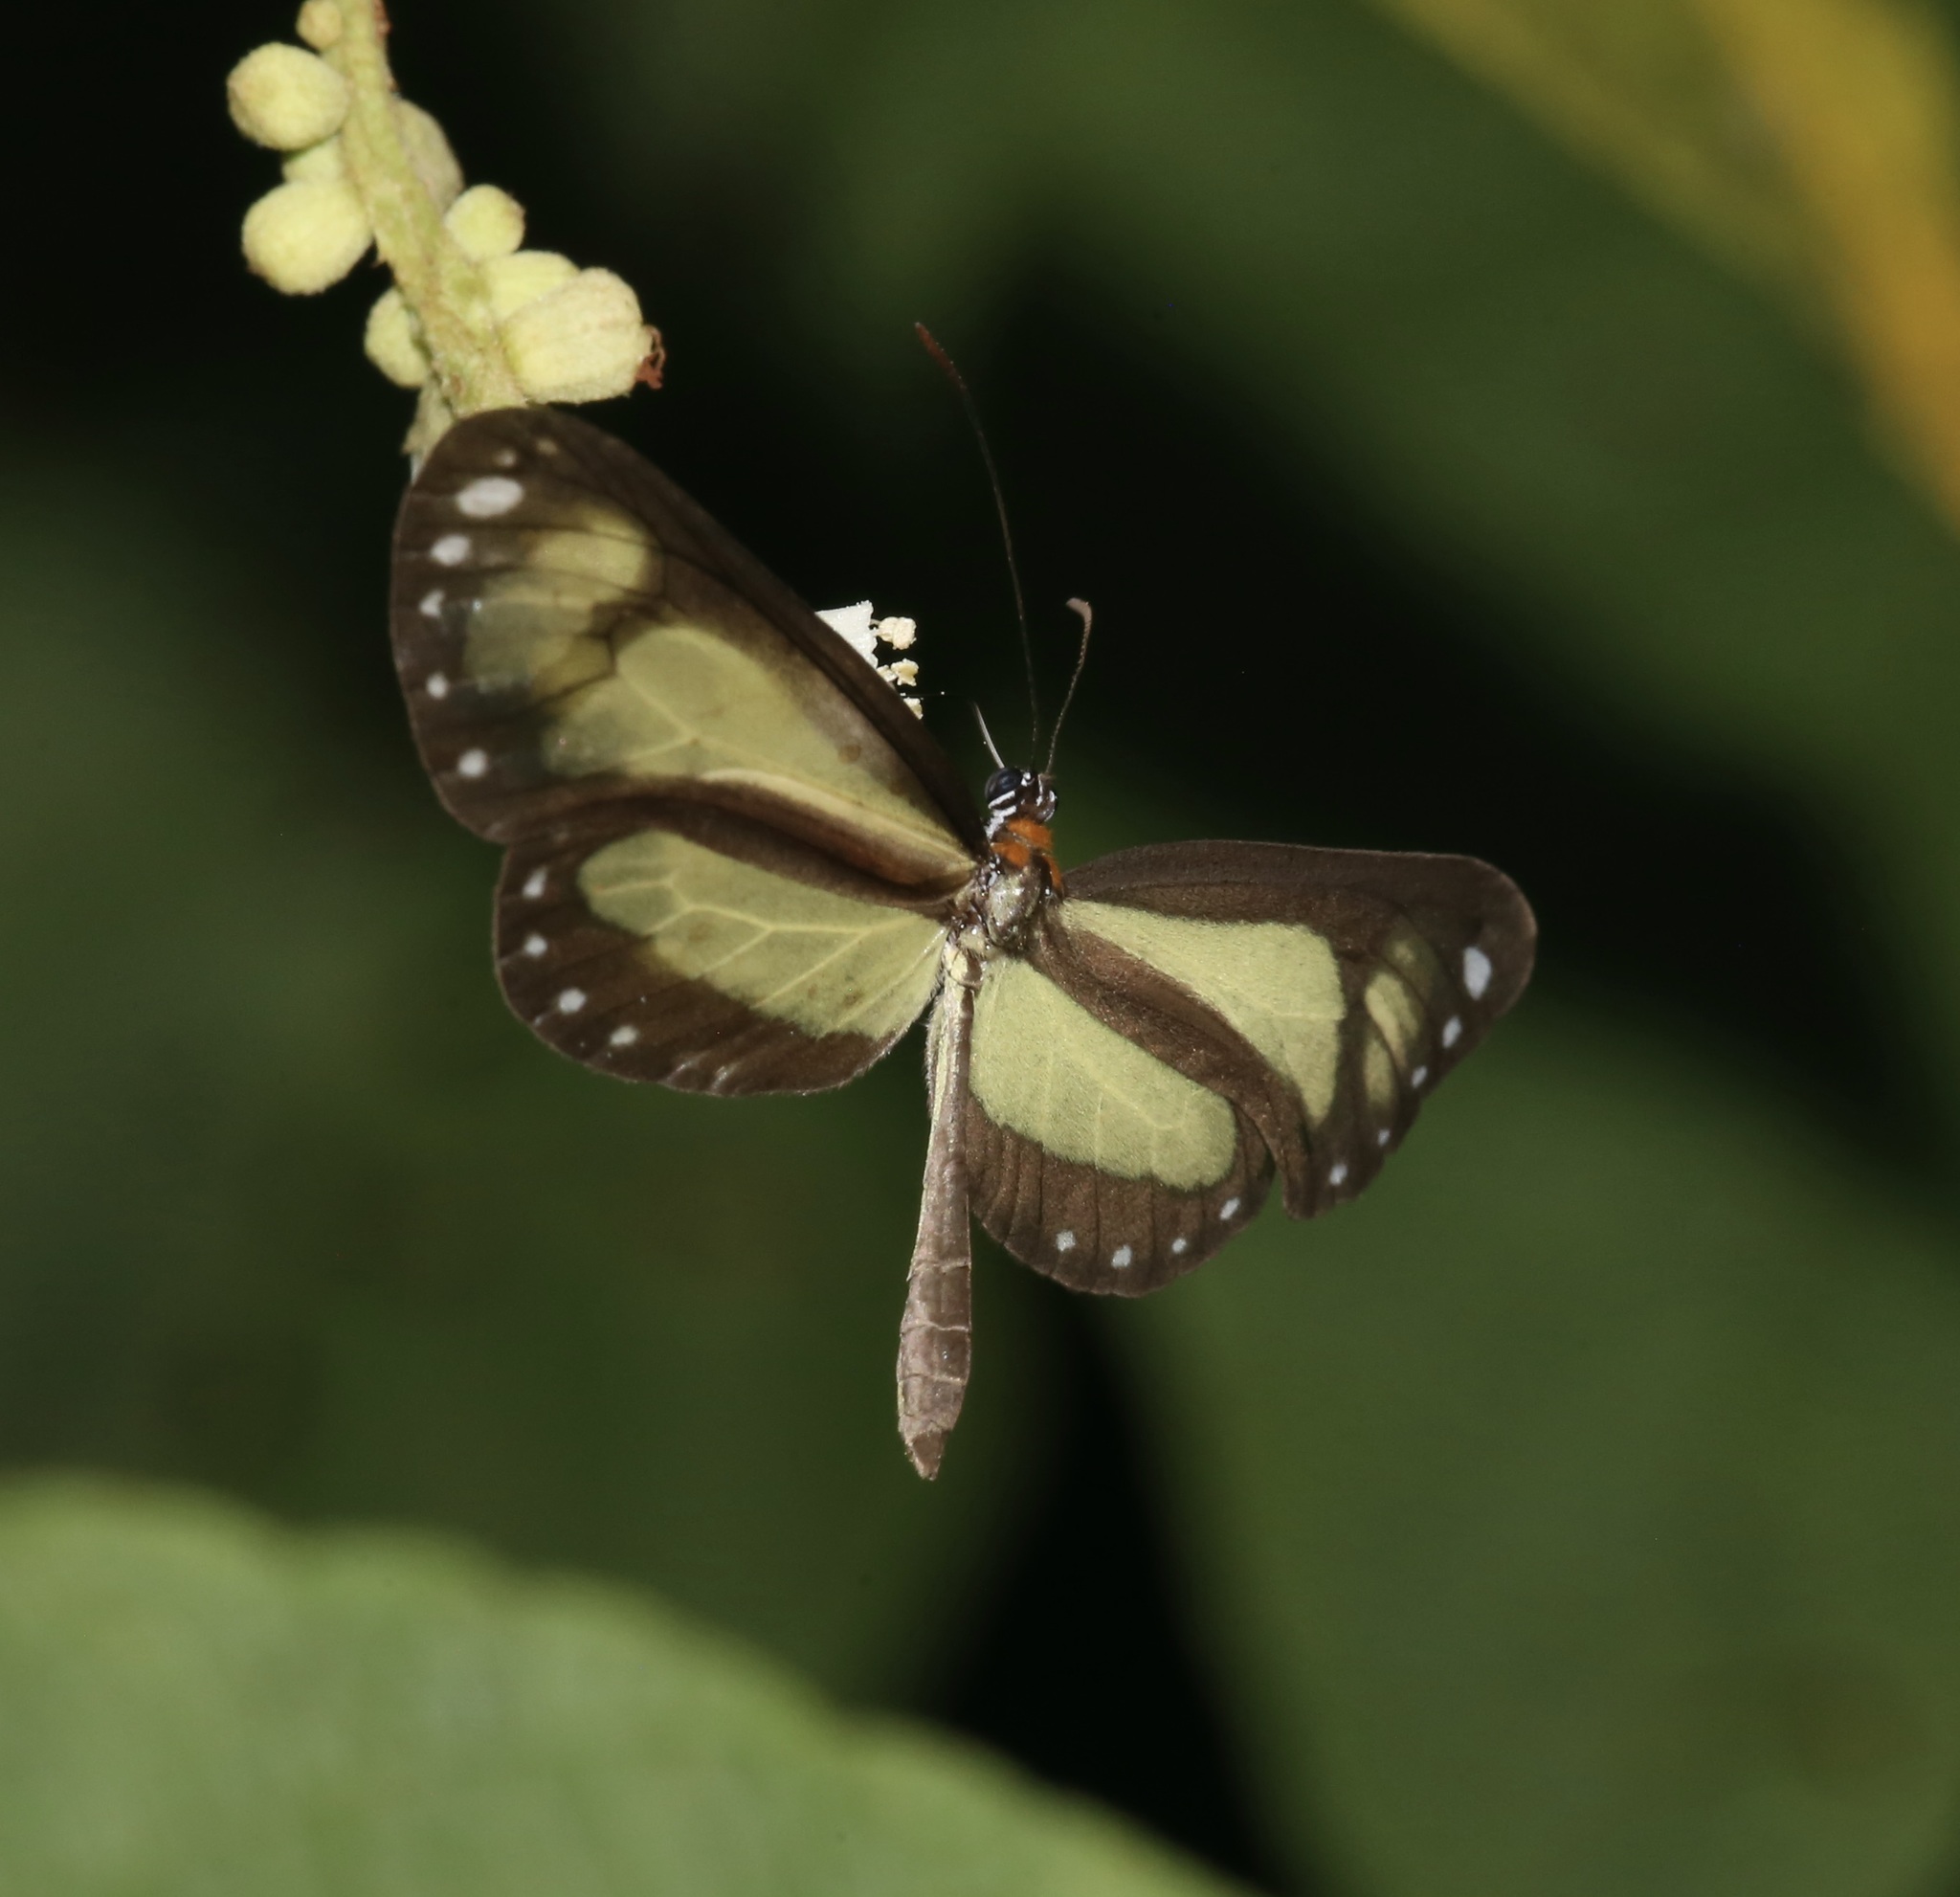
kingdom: Animalia
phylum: Arthropoda
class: Insecta
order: Lepidoptera
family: Nymphalidae
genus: Scada
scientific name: Scada zibia
